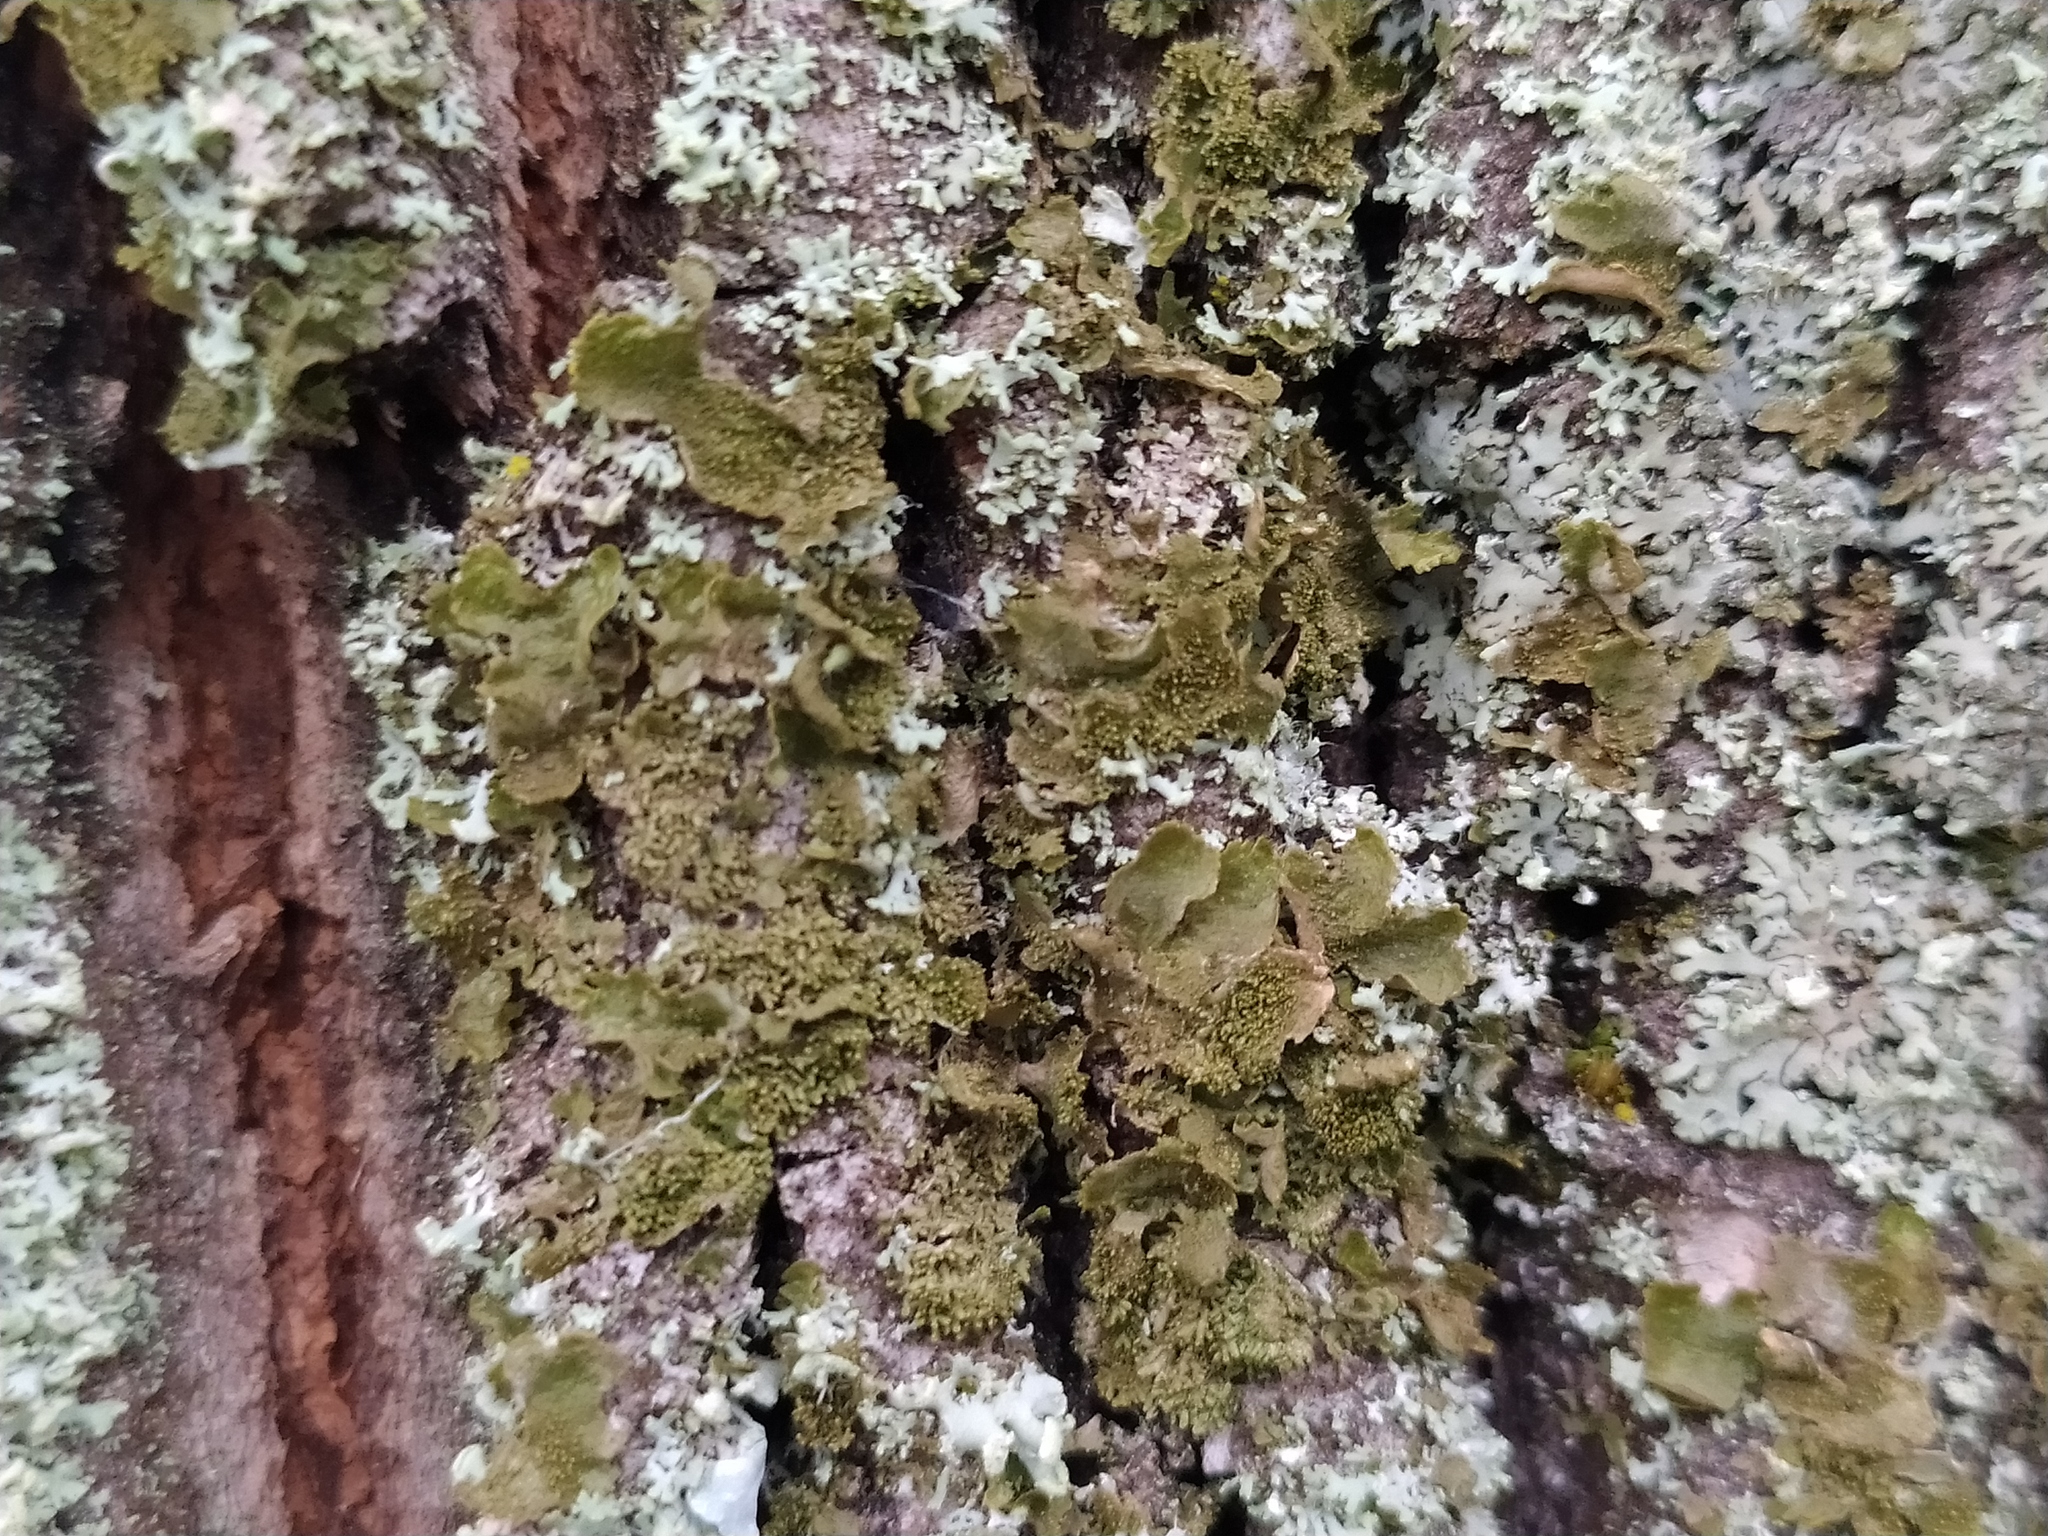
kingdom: Fungi
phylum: Ascomycota
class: Lecanoromycetes
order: Lecanorales
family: Parmeliaceae
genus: Melanohalea
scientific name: Melanohalea exasperatula
